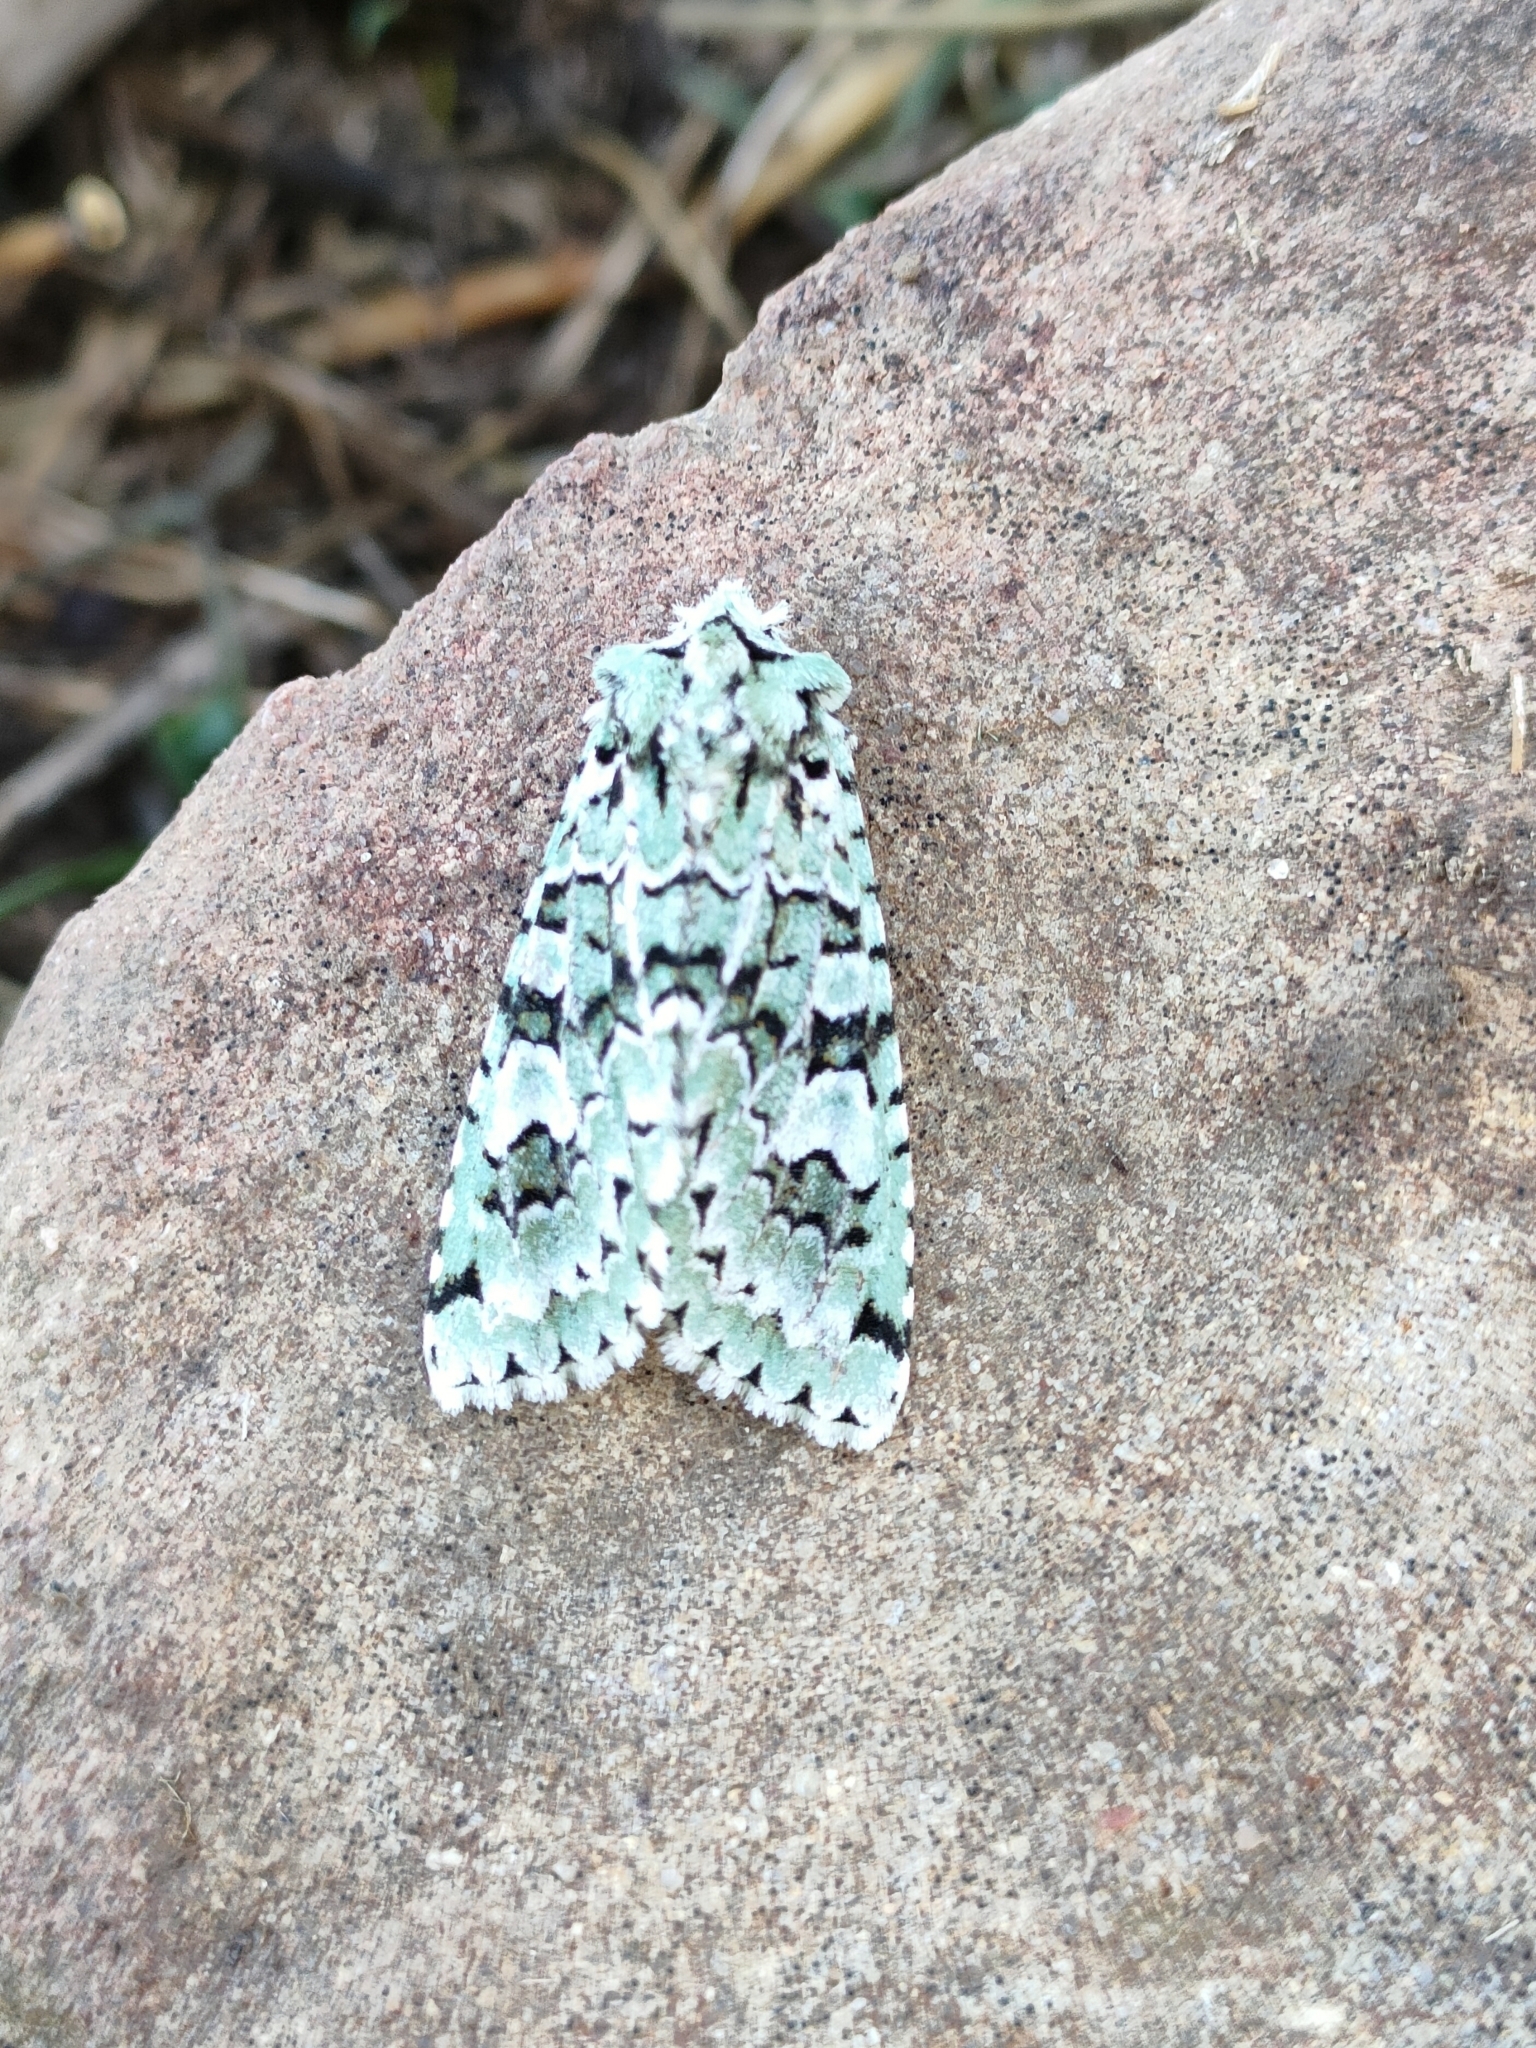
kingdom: Animalia
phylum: Arthropoda
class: Insecta
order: Lepidoptera
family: Noctuidae
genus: Griposia
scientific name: Griposia aprilina
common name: Merveille du jour
